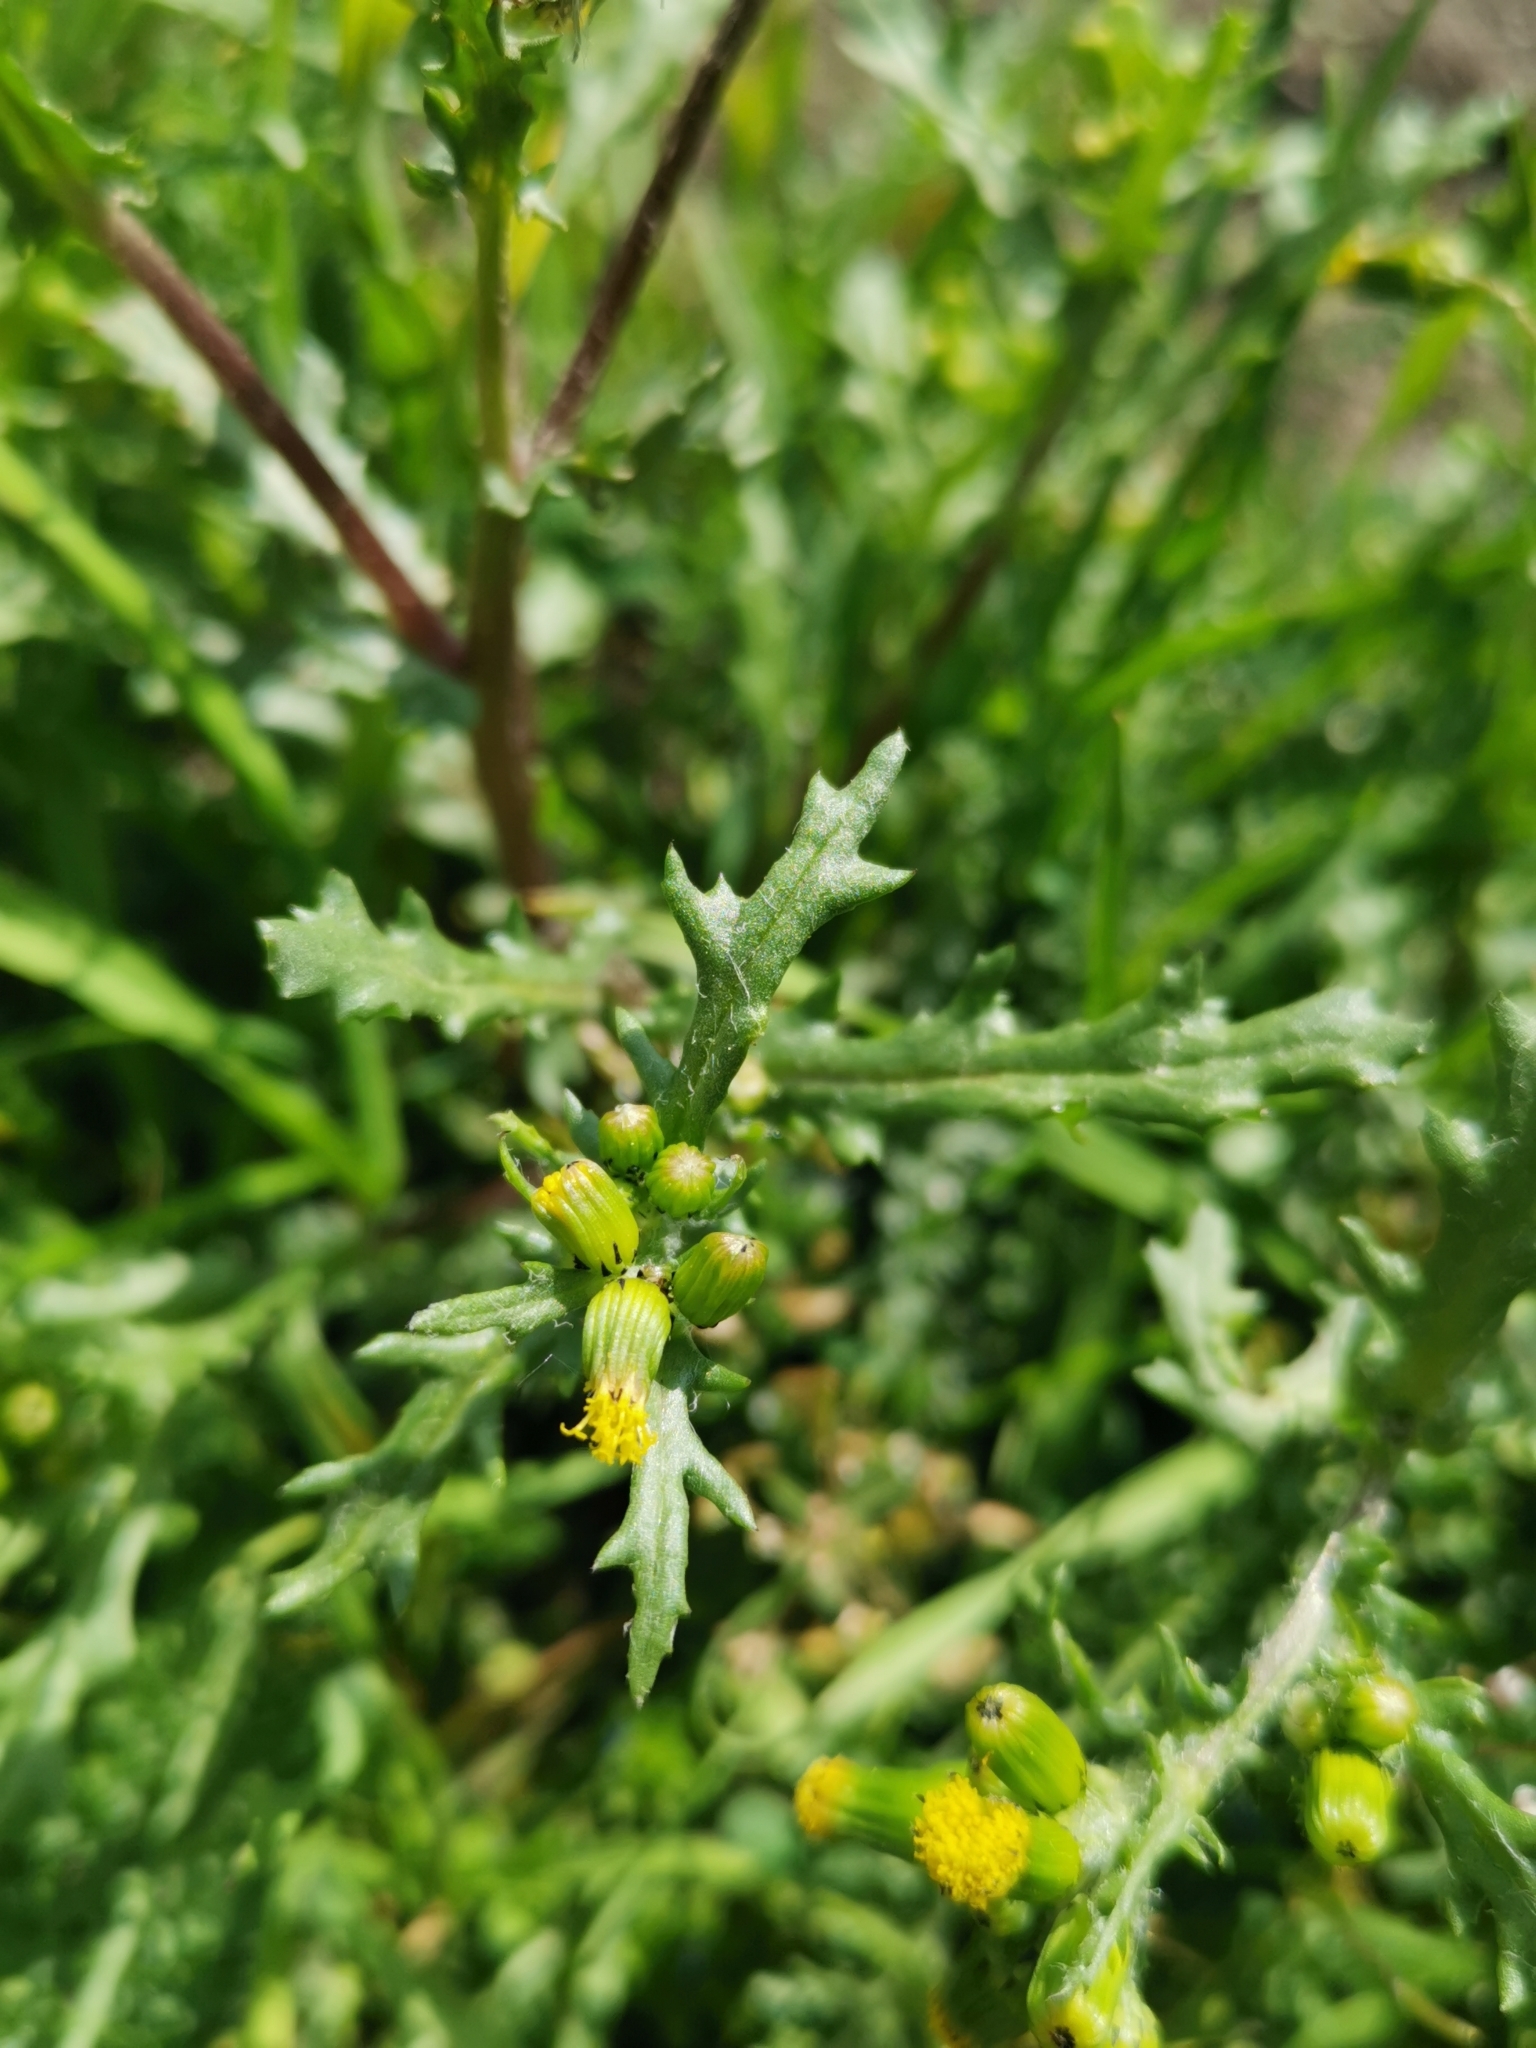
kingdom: Plantae
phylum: Tracheophyta
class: Magnoliopsida
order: Asterales
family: Asteraceae
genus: Senecio
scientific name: Senecio vulgaris
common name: Old-man-in-the-spring
